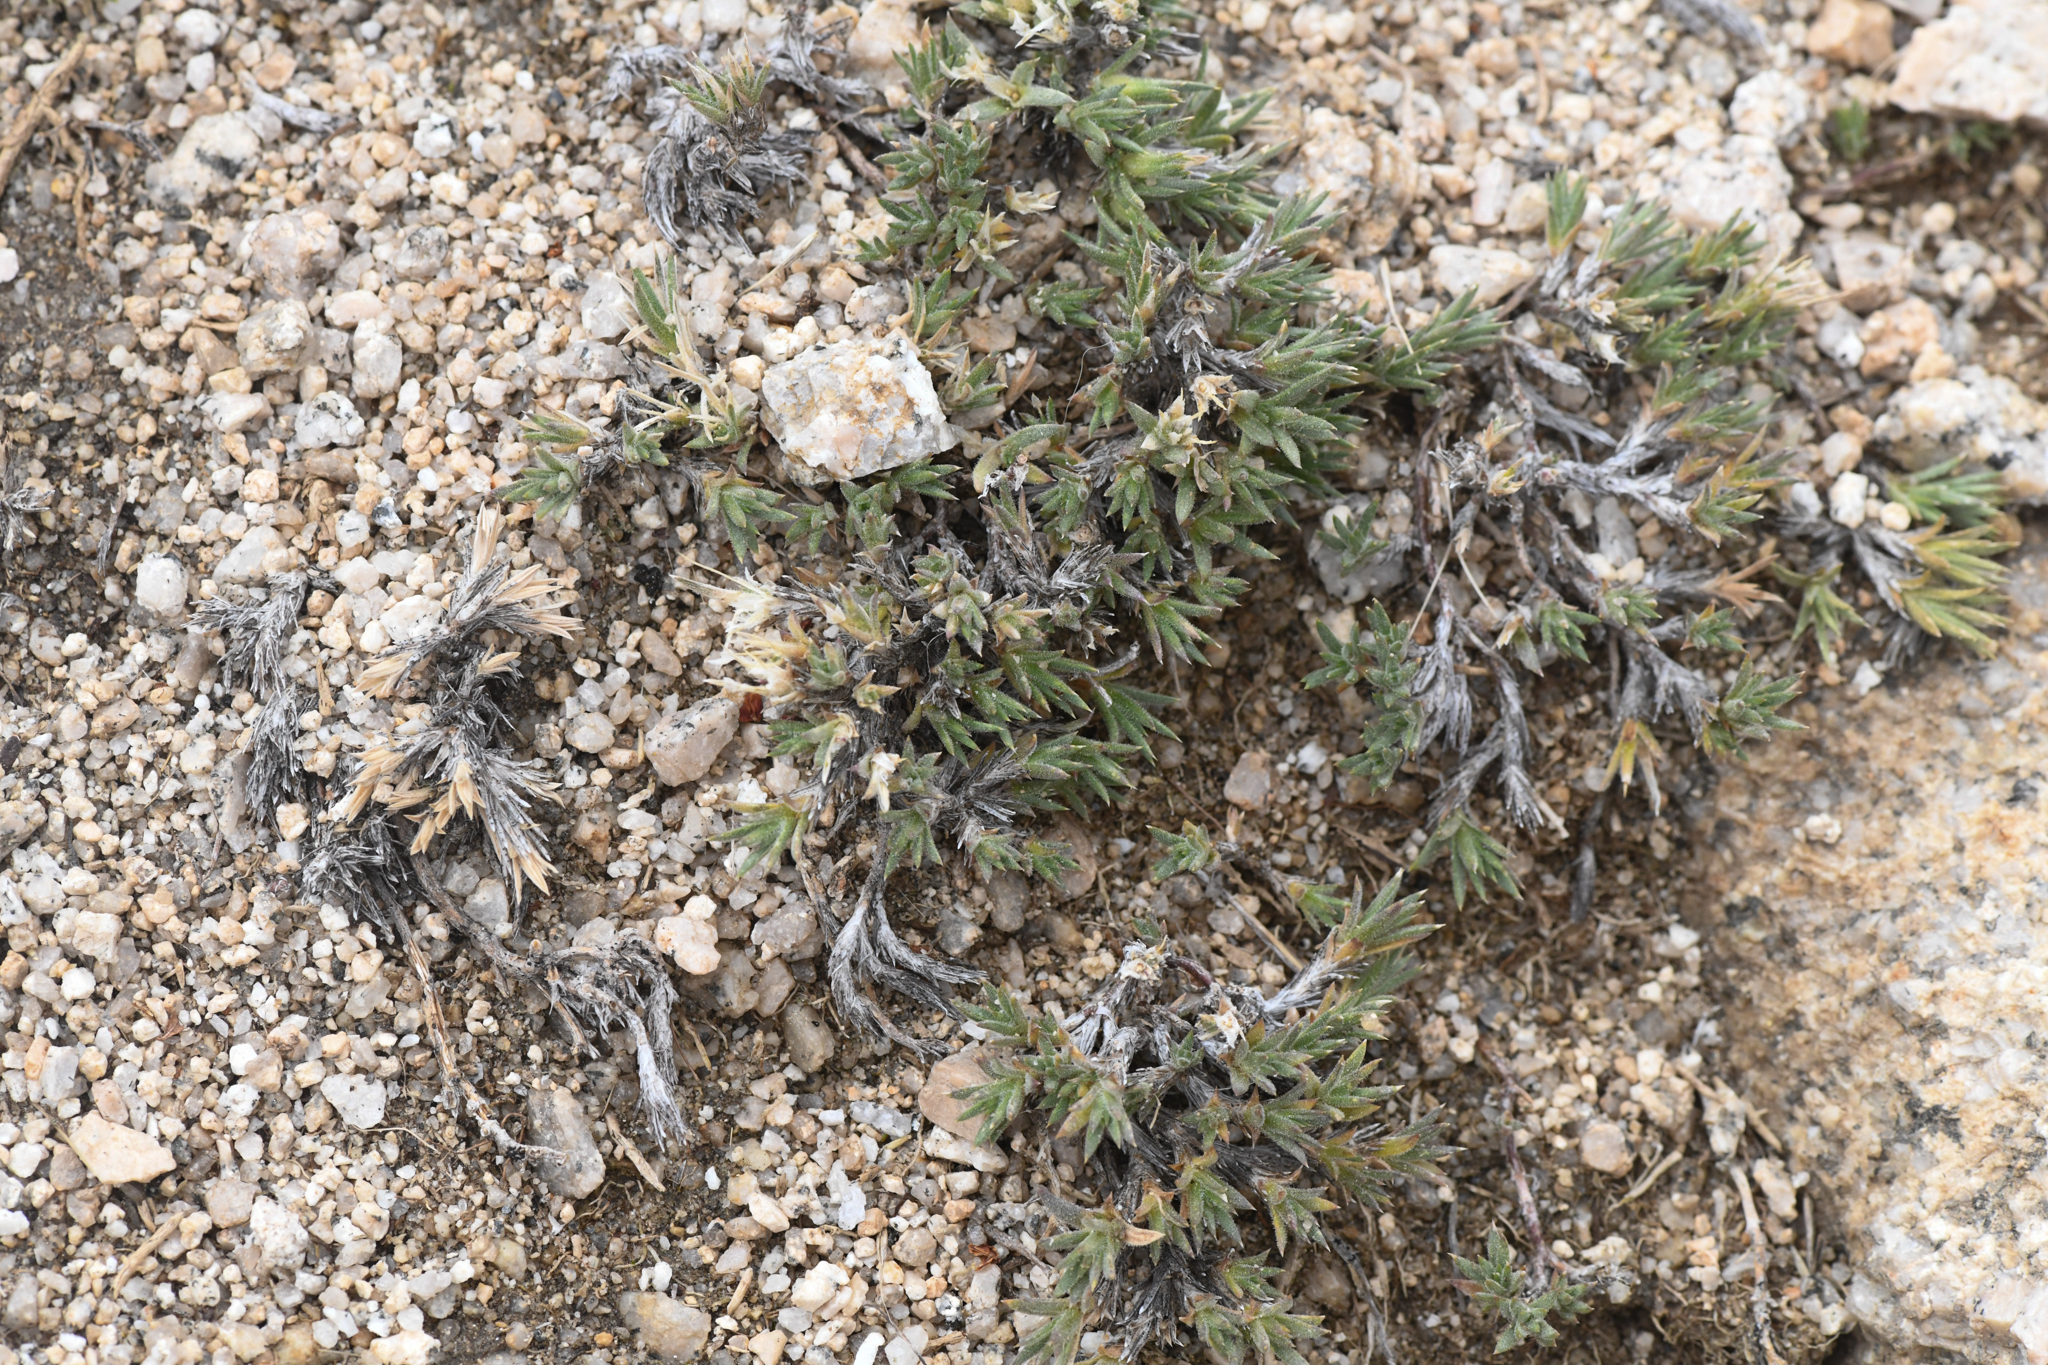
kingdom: Plantae
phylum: Tracheophyta
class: Magnoliopsida
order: Ericales
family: Polemoniaceae
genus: Phlox
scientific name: Phlox dispersa
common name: High sierra phlox
